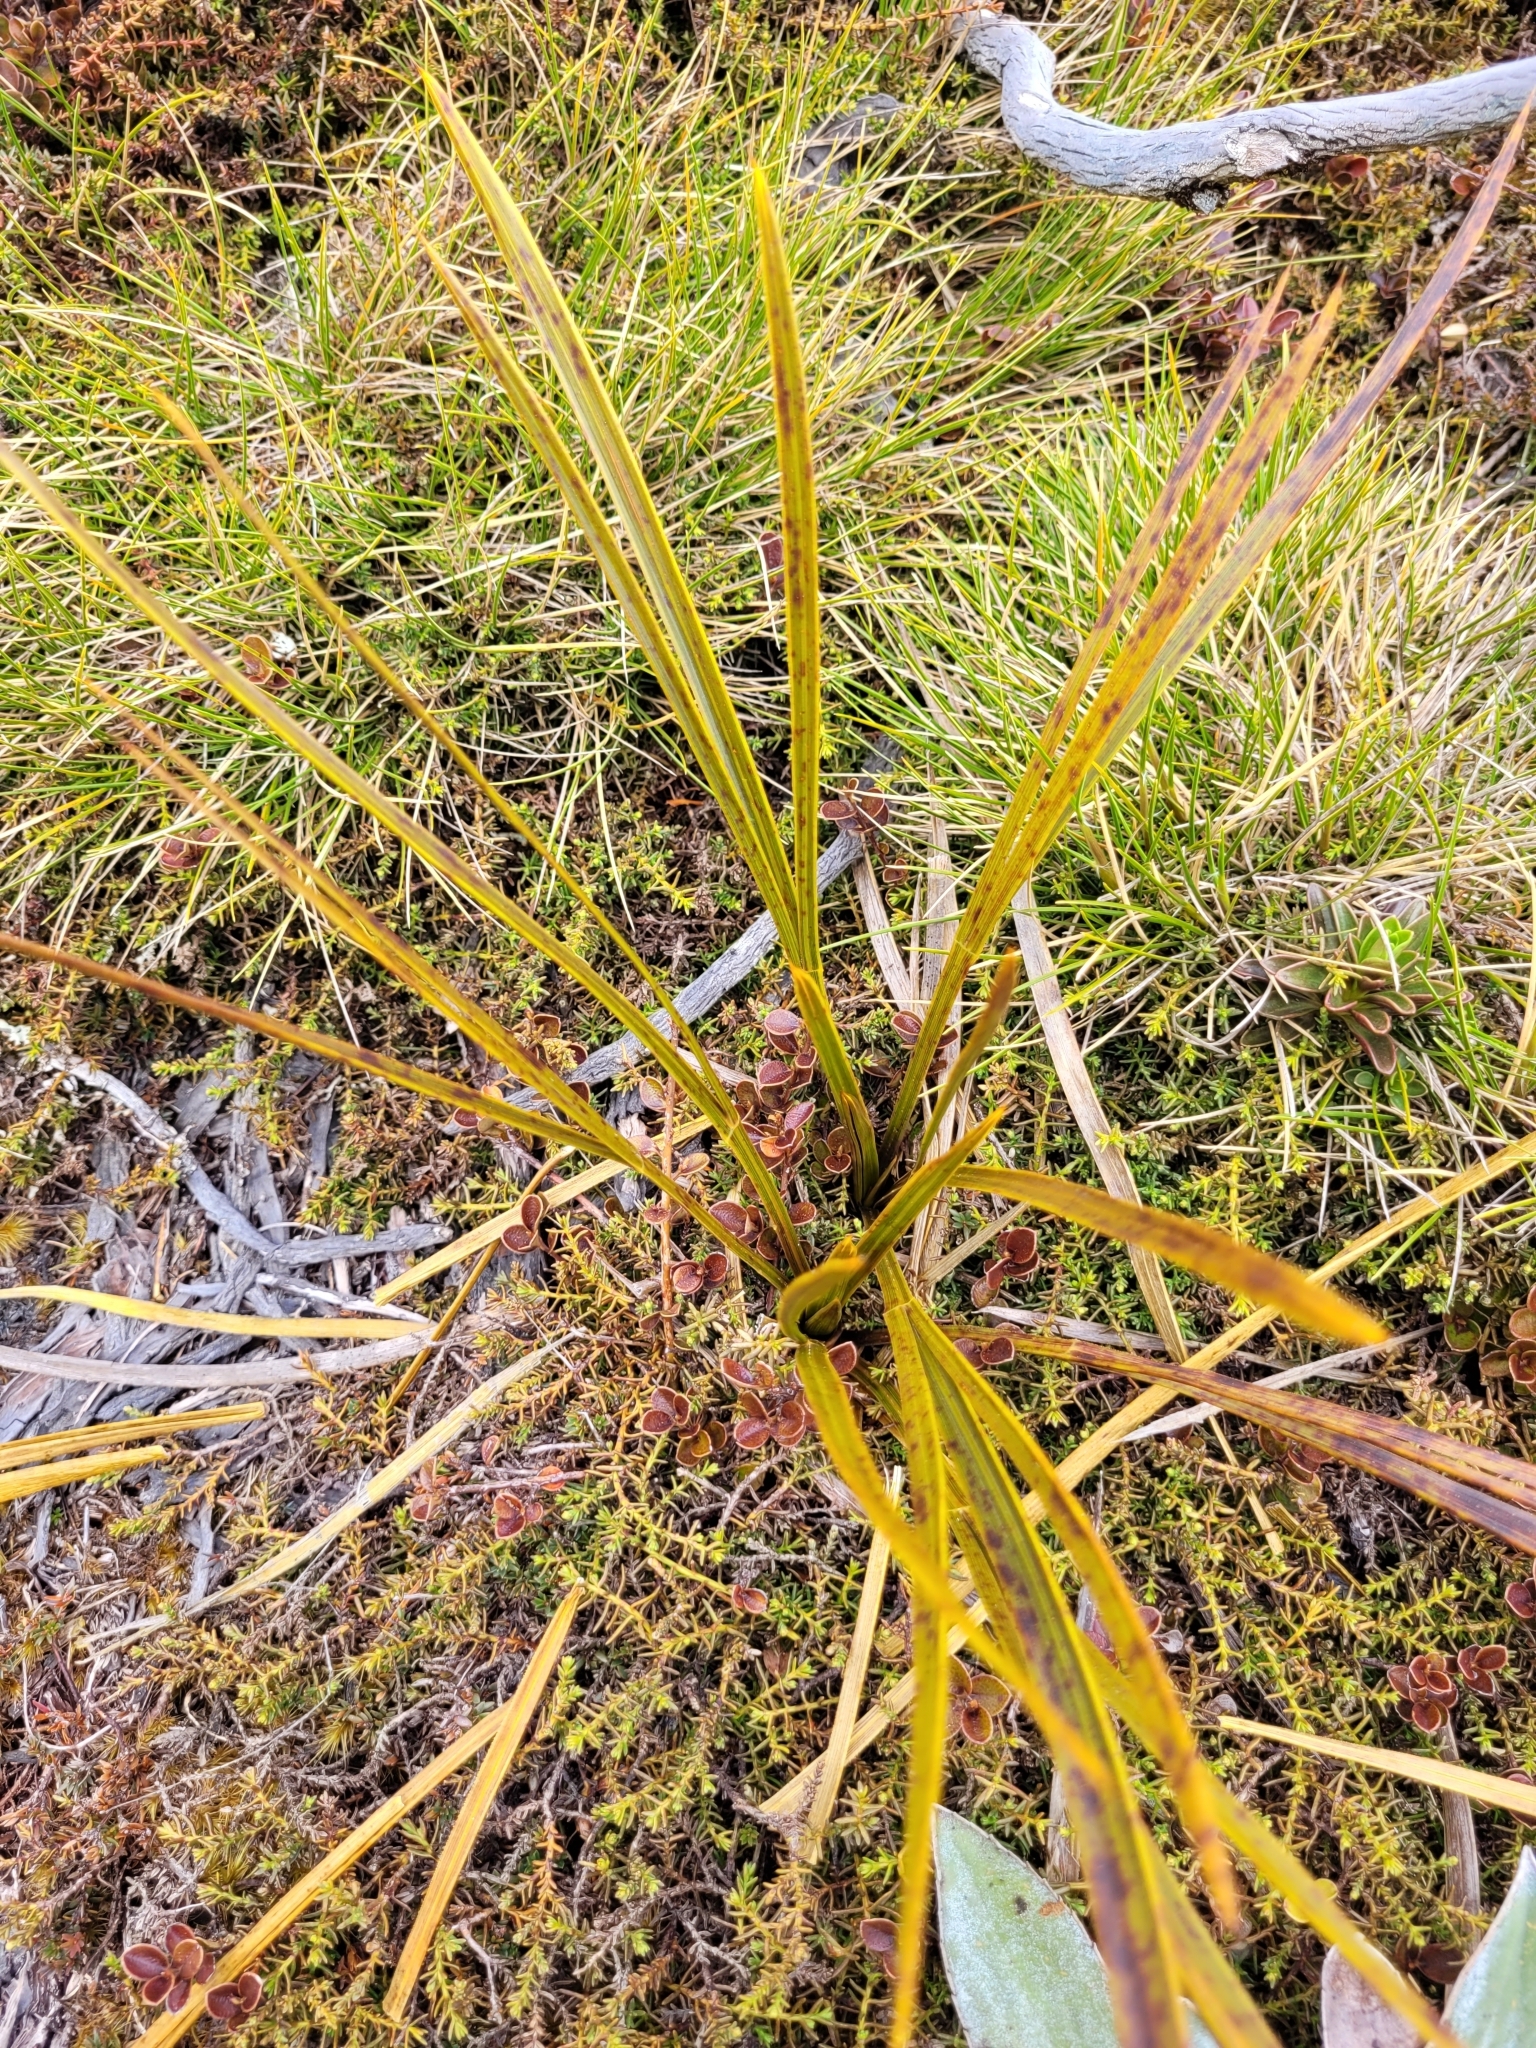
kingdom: Plantae
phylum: Tracheophyta
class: Magnoliopsida
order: Apiales
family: Apiaceae
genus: Aciphylla
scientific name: Aciphylla trifoliolata
